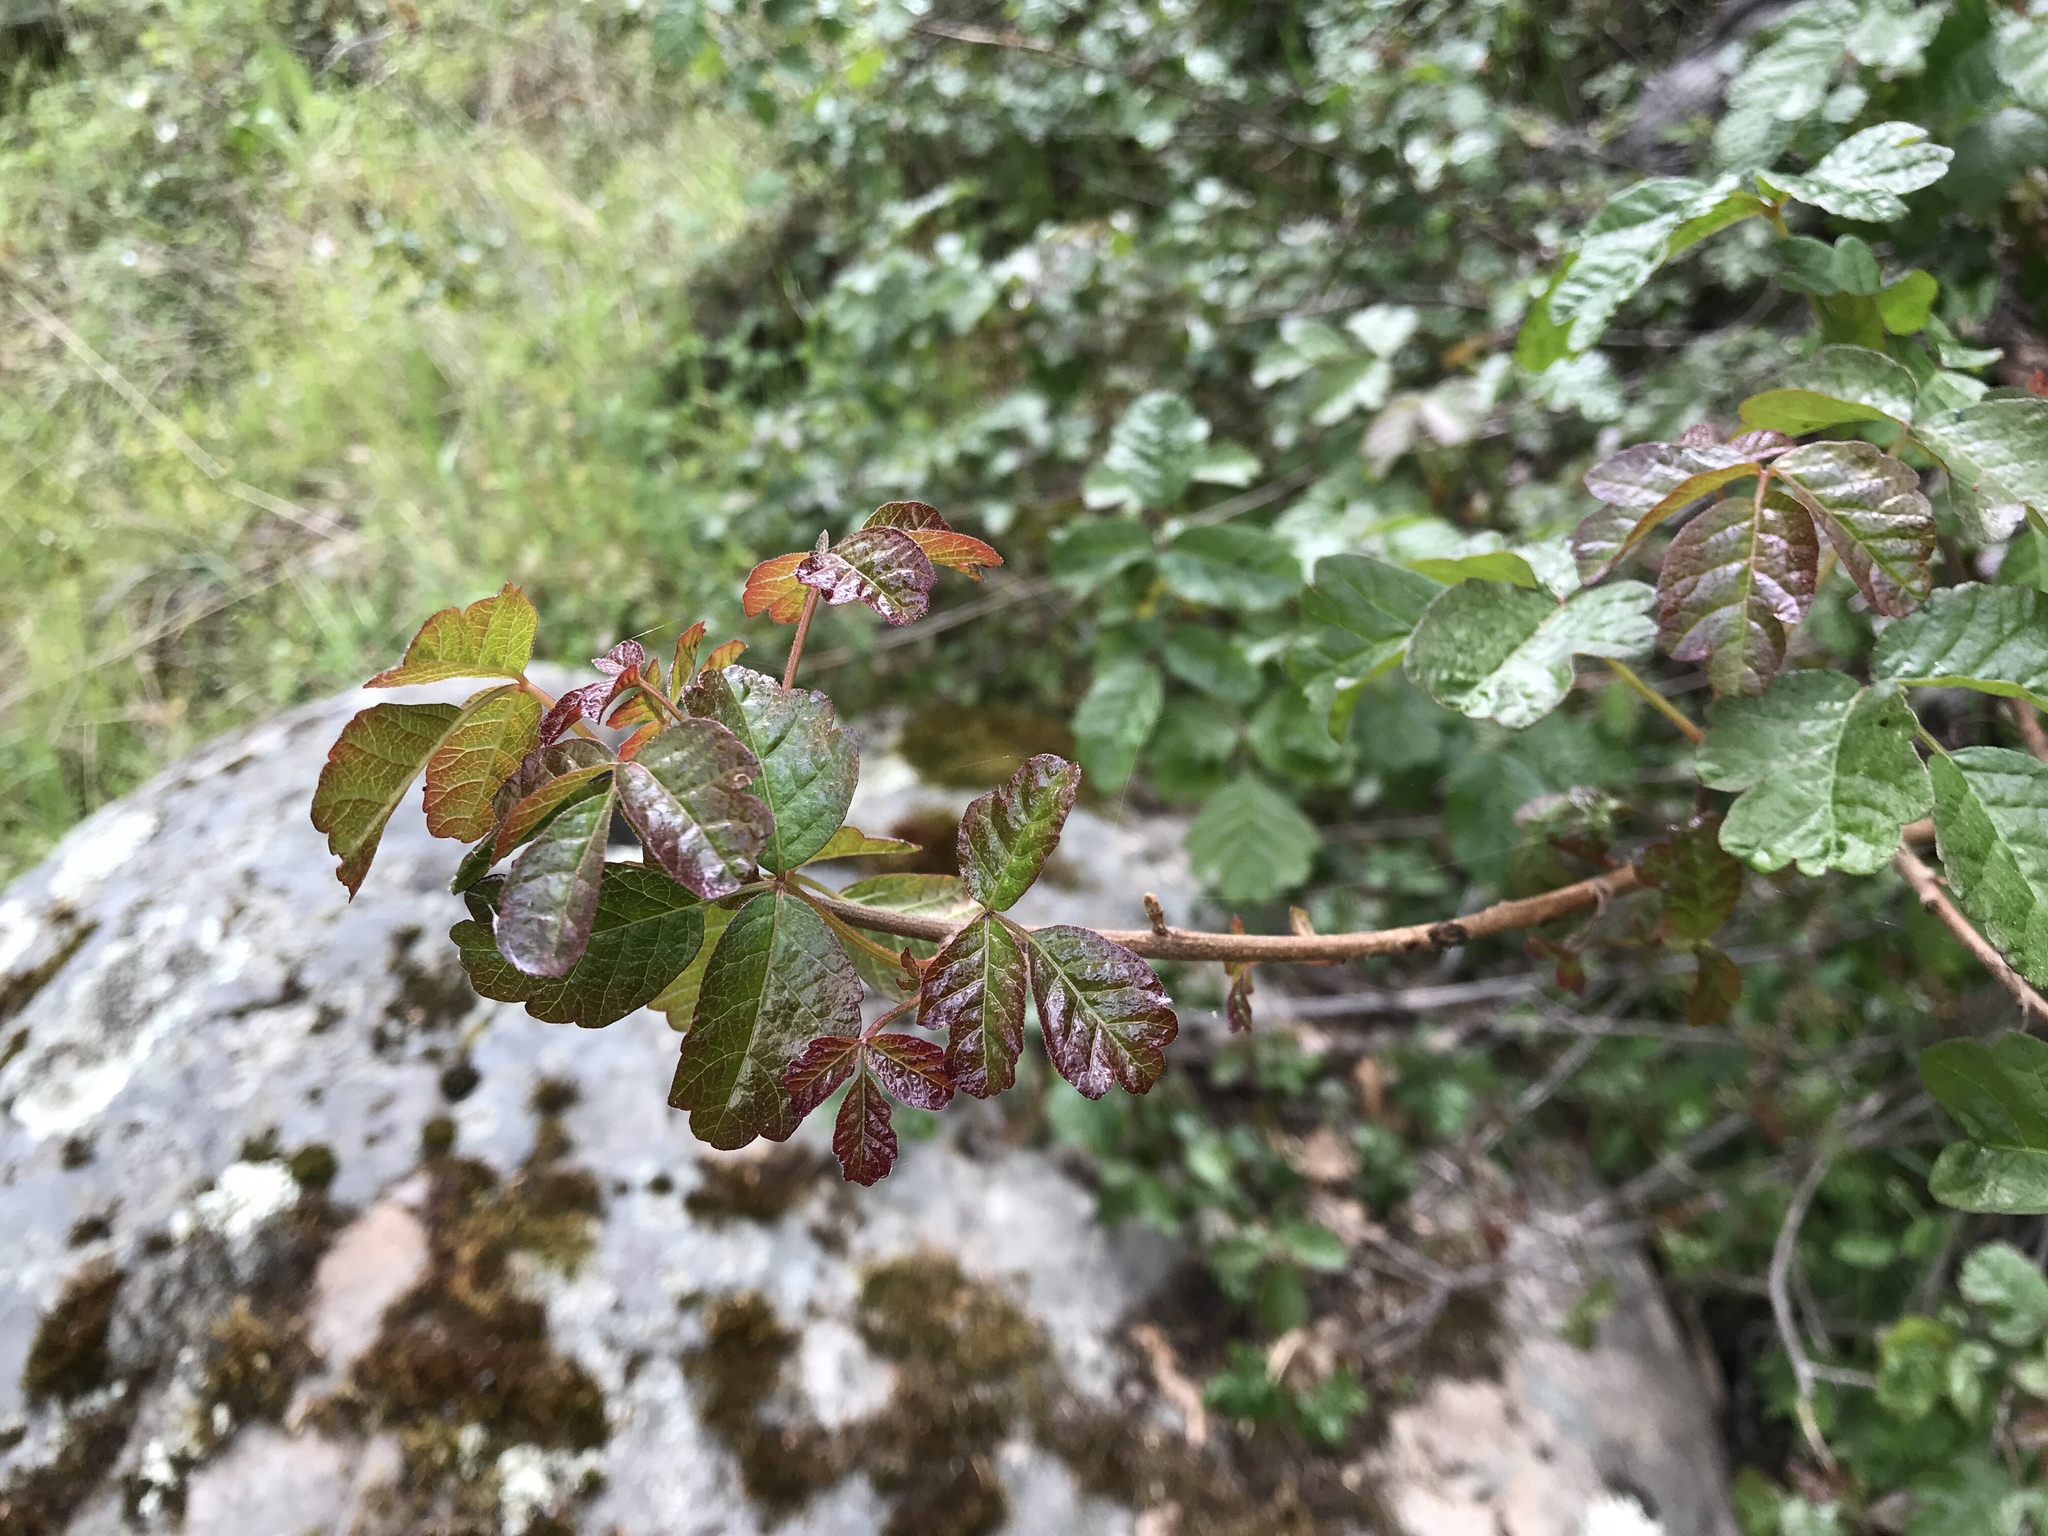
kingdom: Plantae
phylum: Tracheophyta
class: Magnoliopsida
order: Sapindales
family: Anacardiaceae
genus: Toxicodendron
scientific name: Toxicodendron diversilobum
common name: Pacific poison-oak
